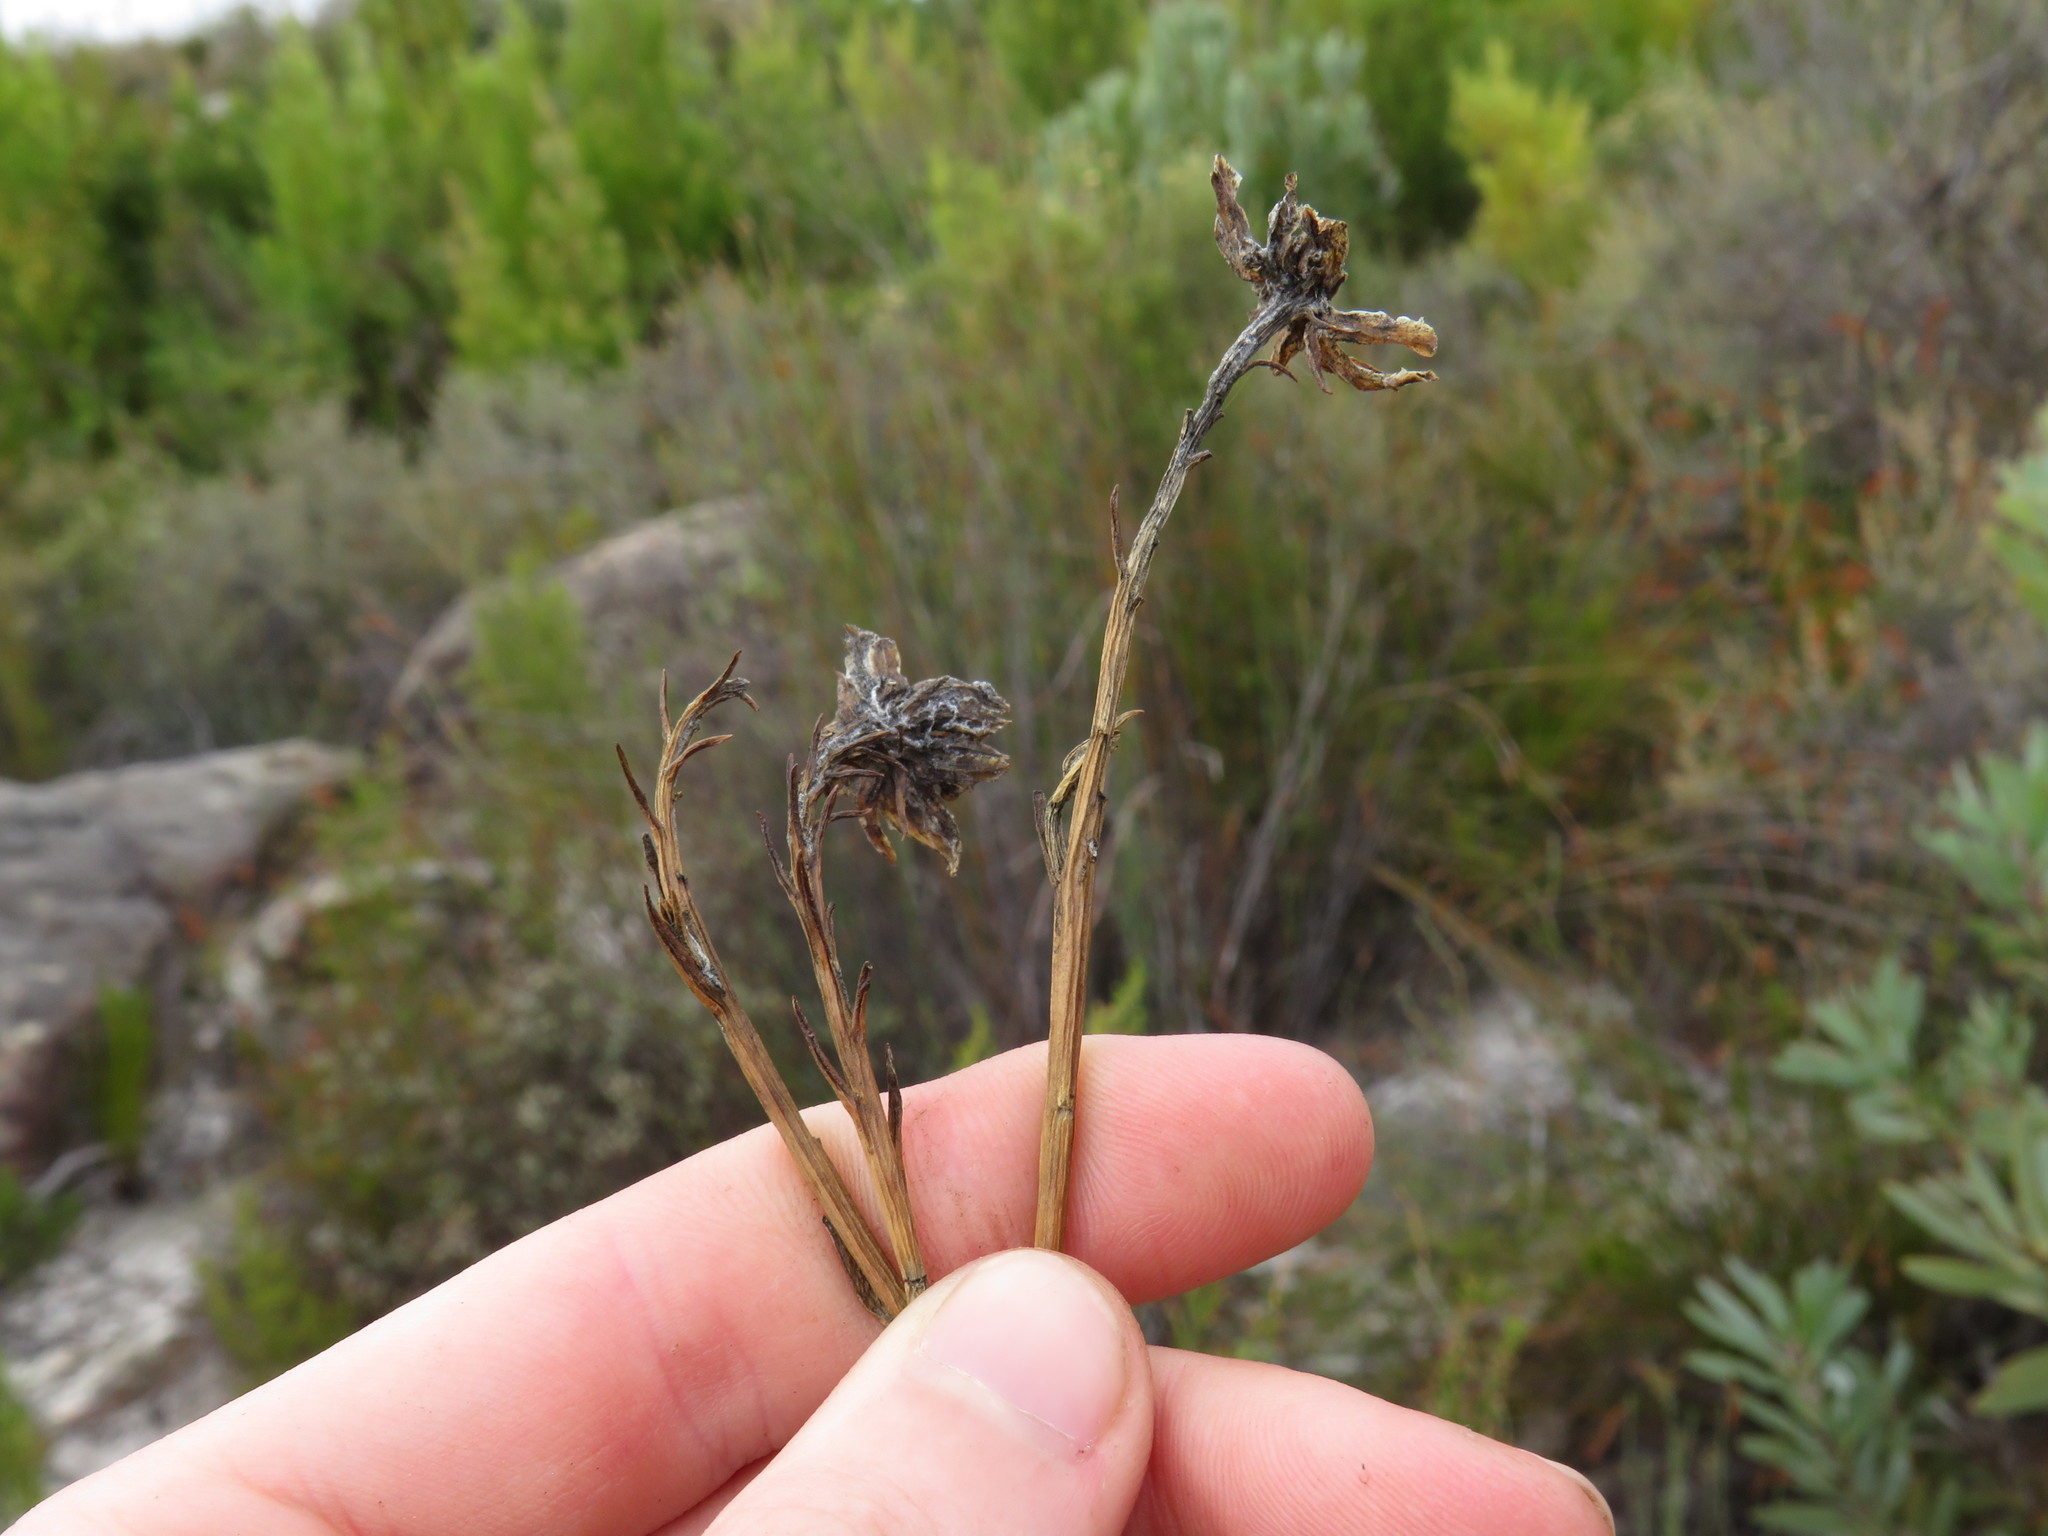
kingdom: Plantae
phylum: Tracheophyta
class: Magnoliopsida
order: Asterales
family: Asteraceae
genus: Osteospermum
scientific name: Osteospermum junceum
